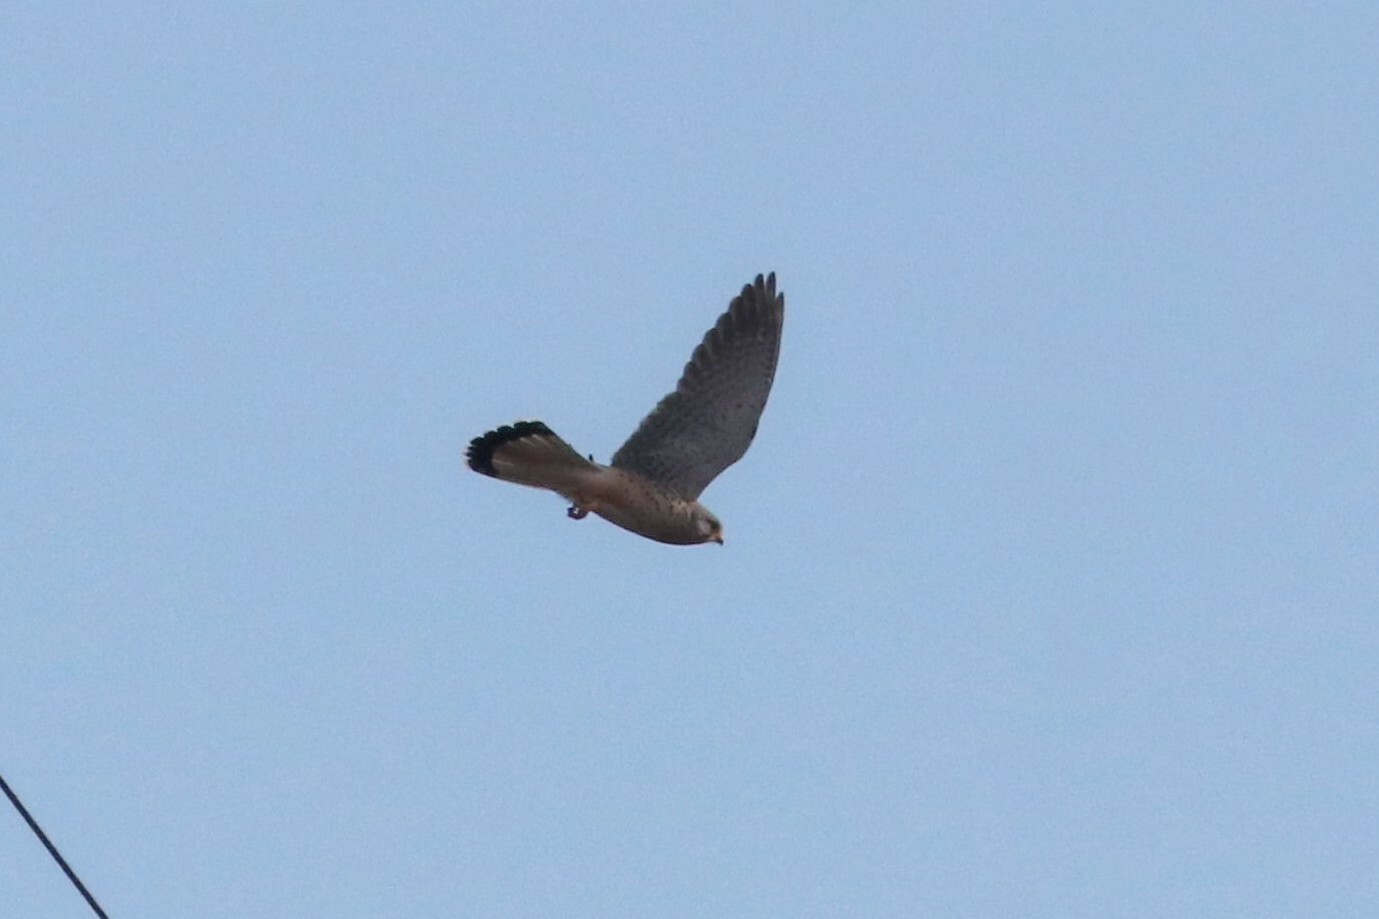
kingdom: Animalia
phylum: Chordata
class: Aves
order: Falconiformes
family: Falconidae
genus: Falco
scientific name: Falco tinnunculus
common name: Common kestrel
